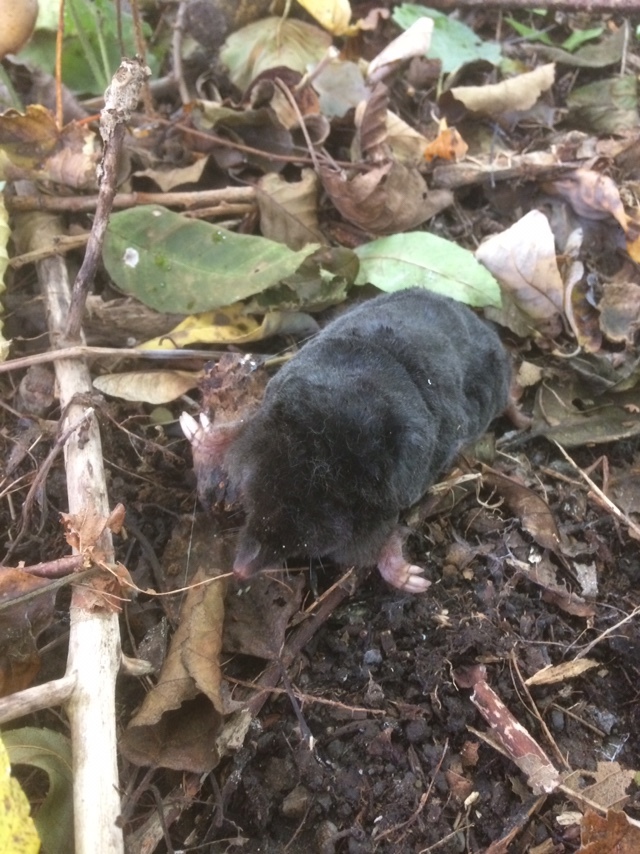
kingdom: Animalia
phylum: Chordata
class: Mammalia
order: Soricomorpha
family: Talpidae
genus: Talpa
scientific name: Talpa europaea
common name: European mole
